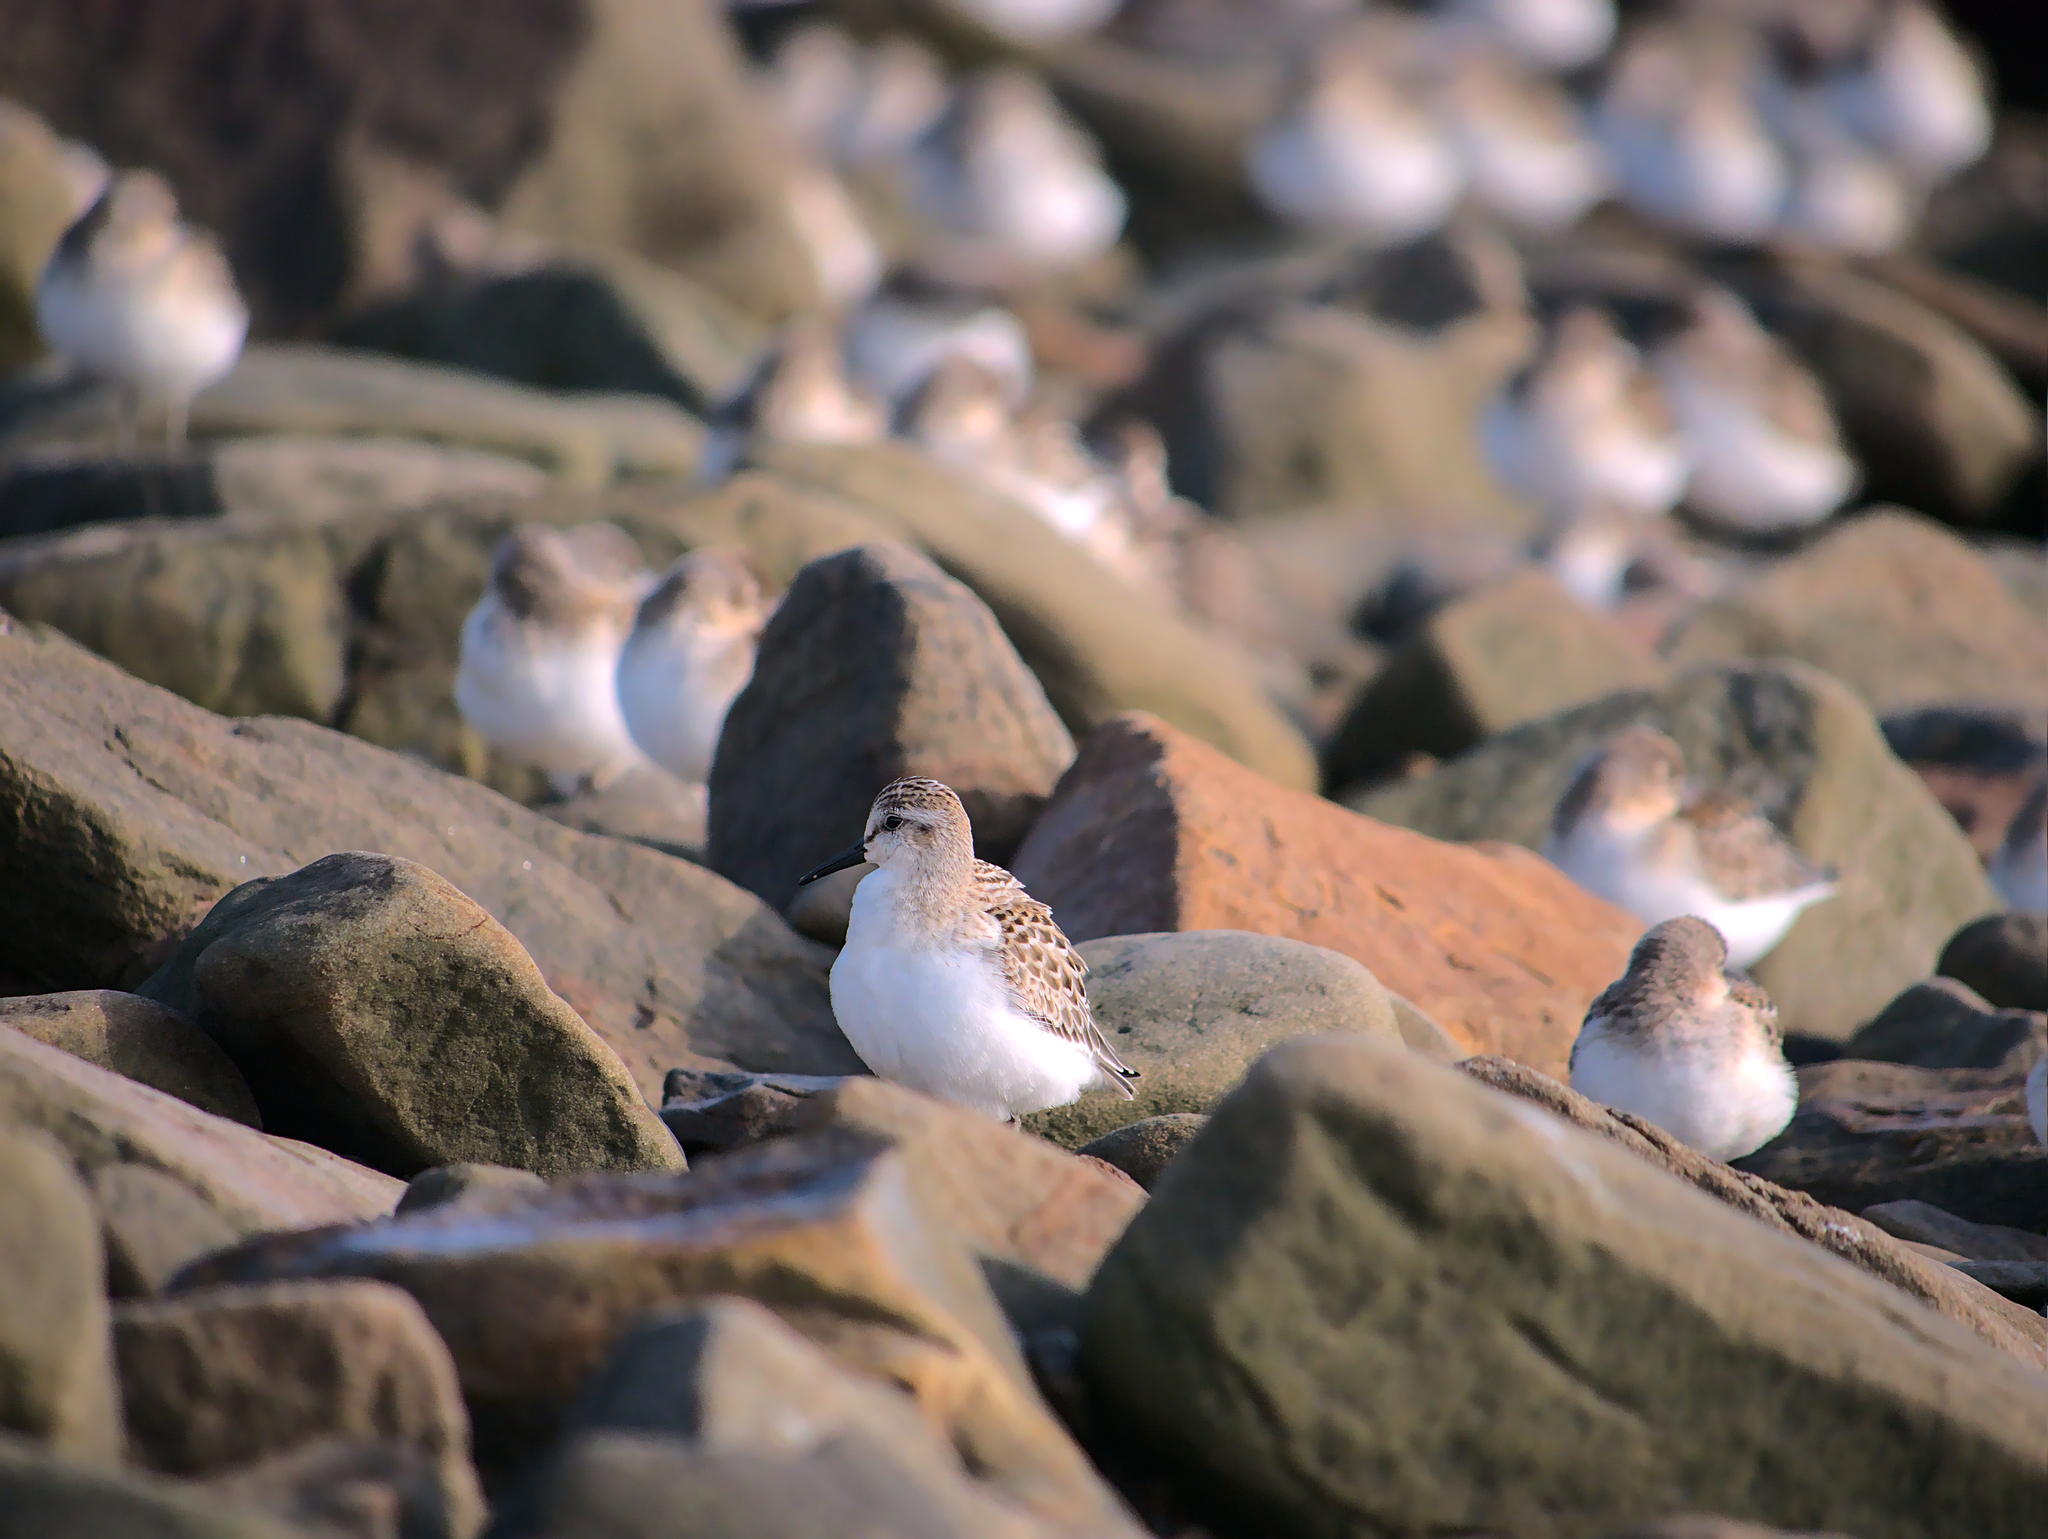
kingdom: Animalia
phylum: Chordata
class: Aves
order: Charadriiformes
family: Scolopacidae
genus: Calidris
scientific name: Calidris pusilla
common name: Semipalmated sandpiper
